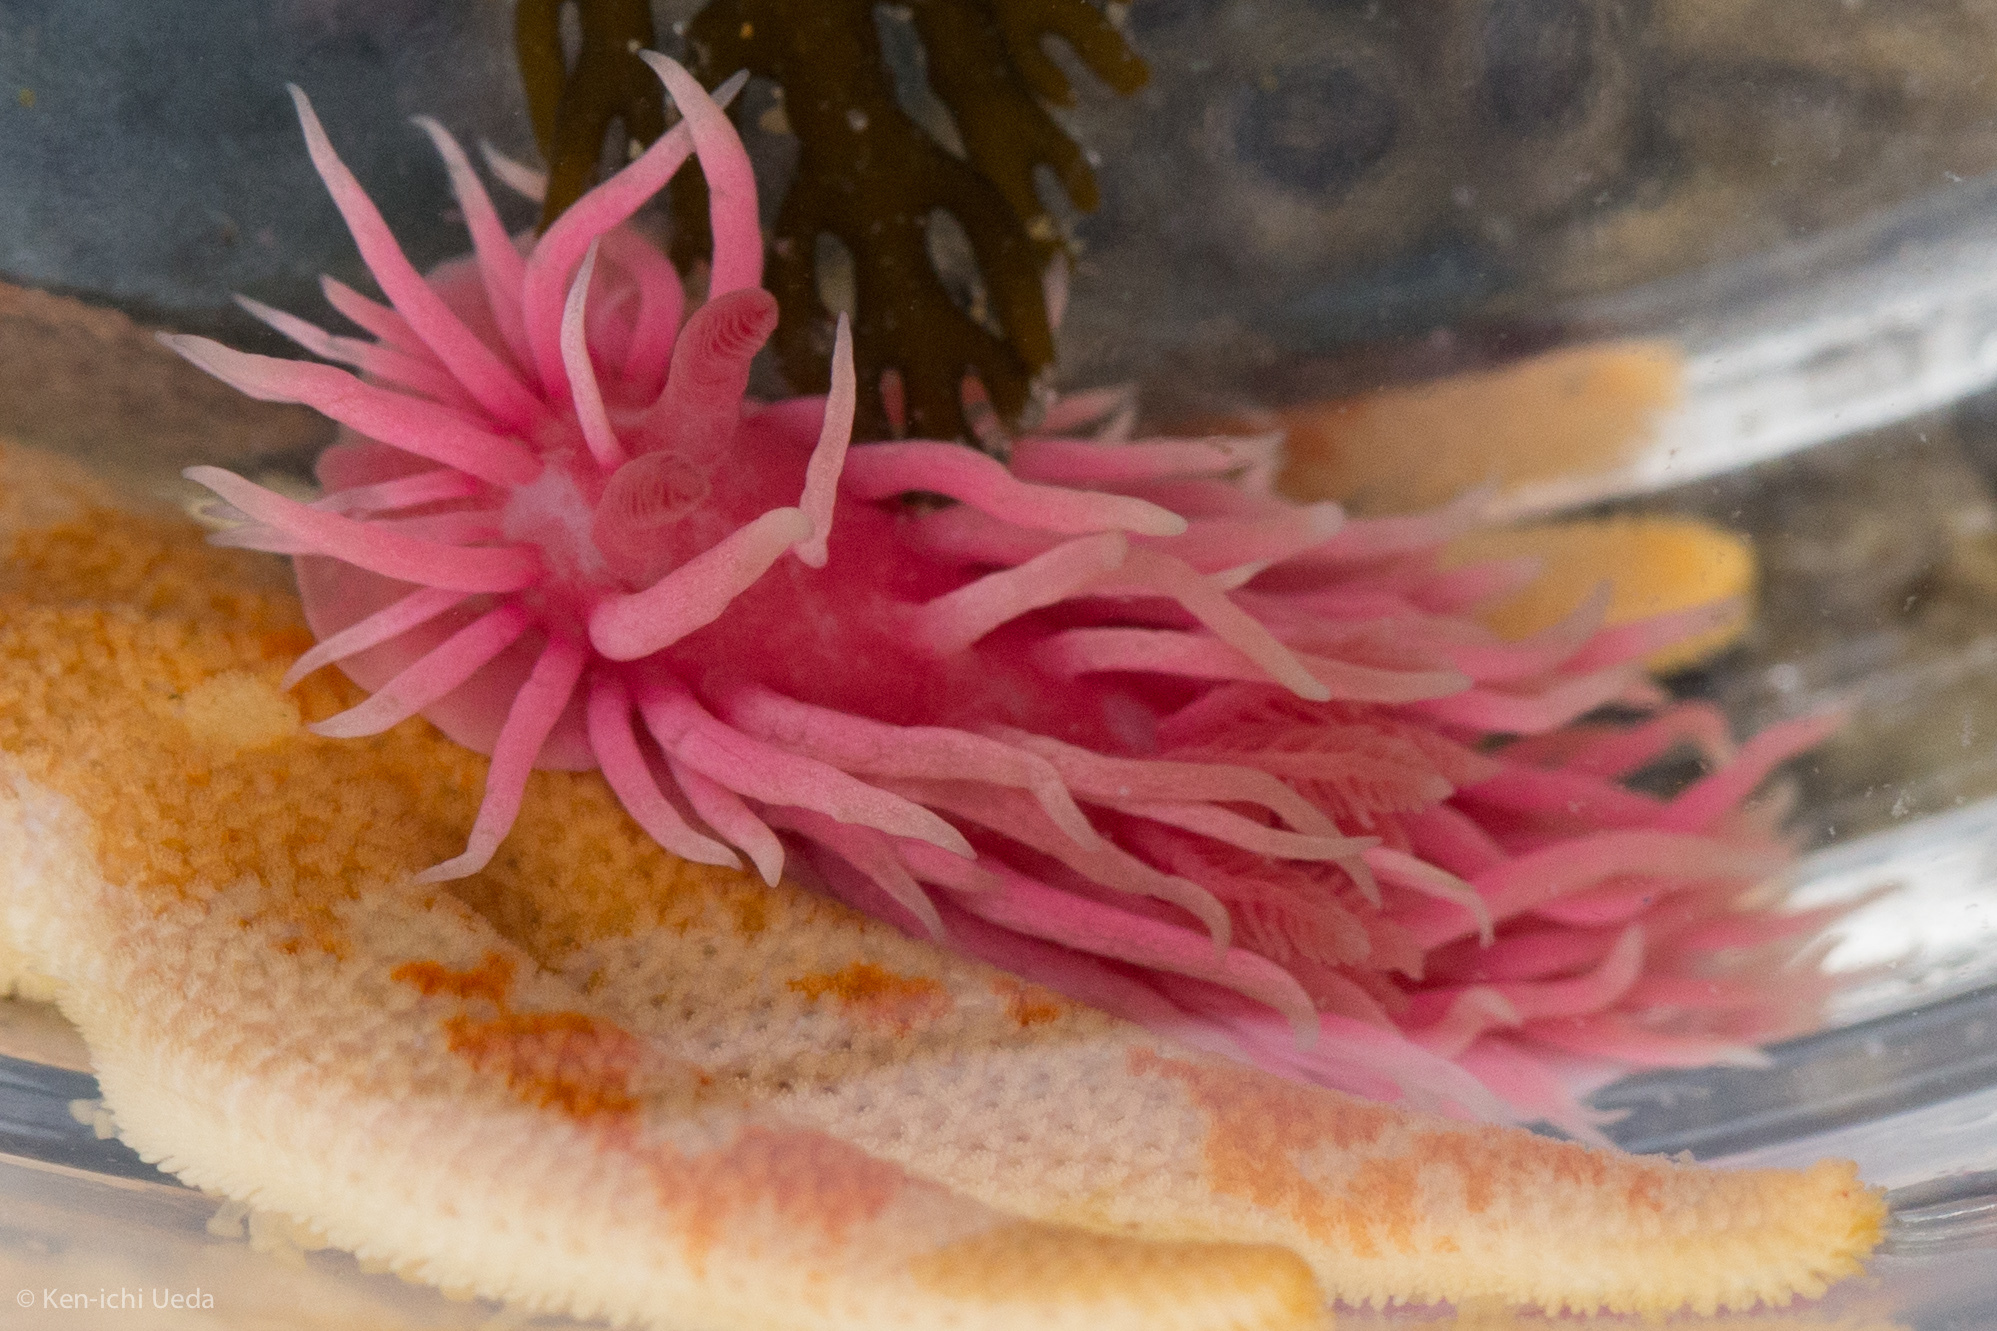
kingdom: Animalia
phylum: Mollusca
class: Gastropoda
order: Nudibranchia
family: Goniodorididae
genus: Okenia
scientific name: Okenia
